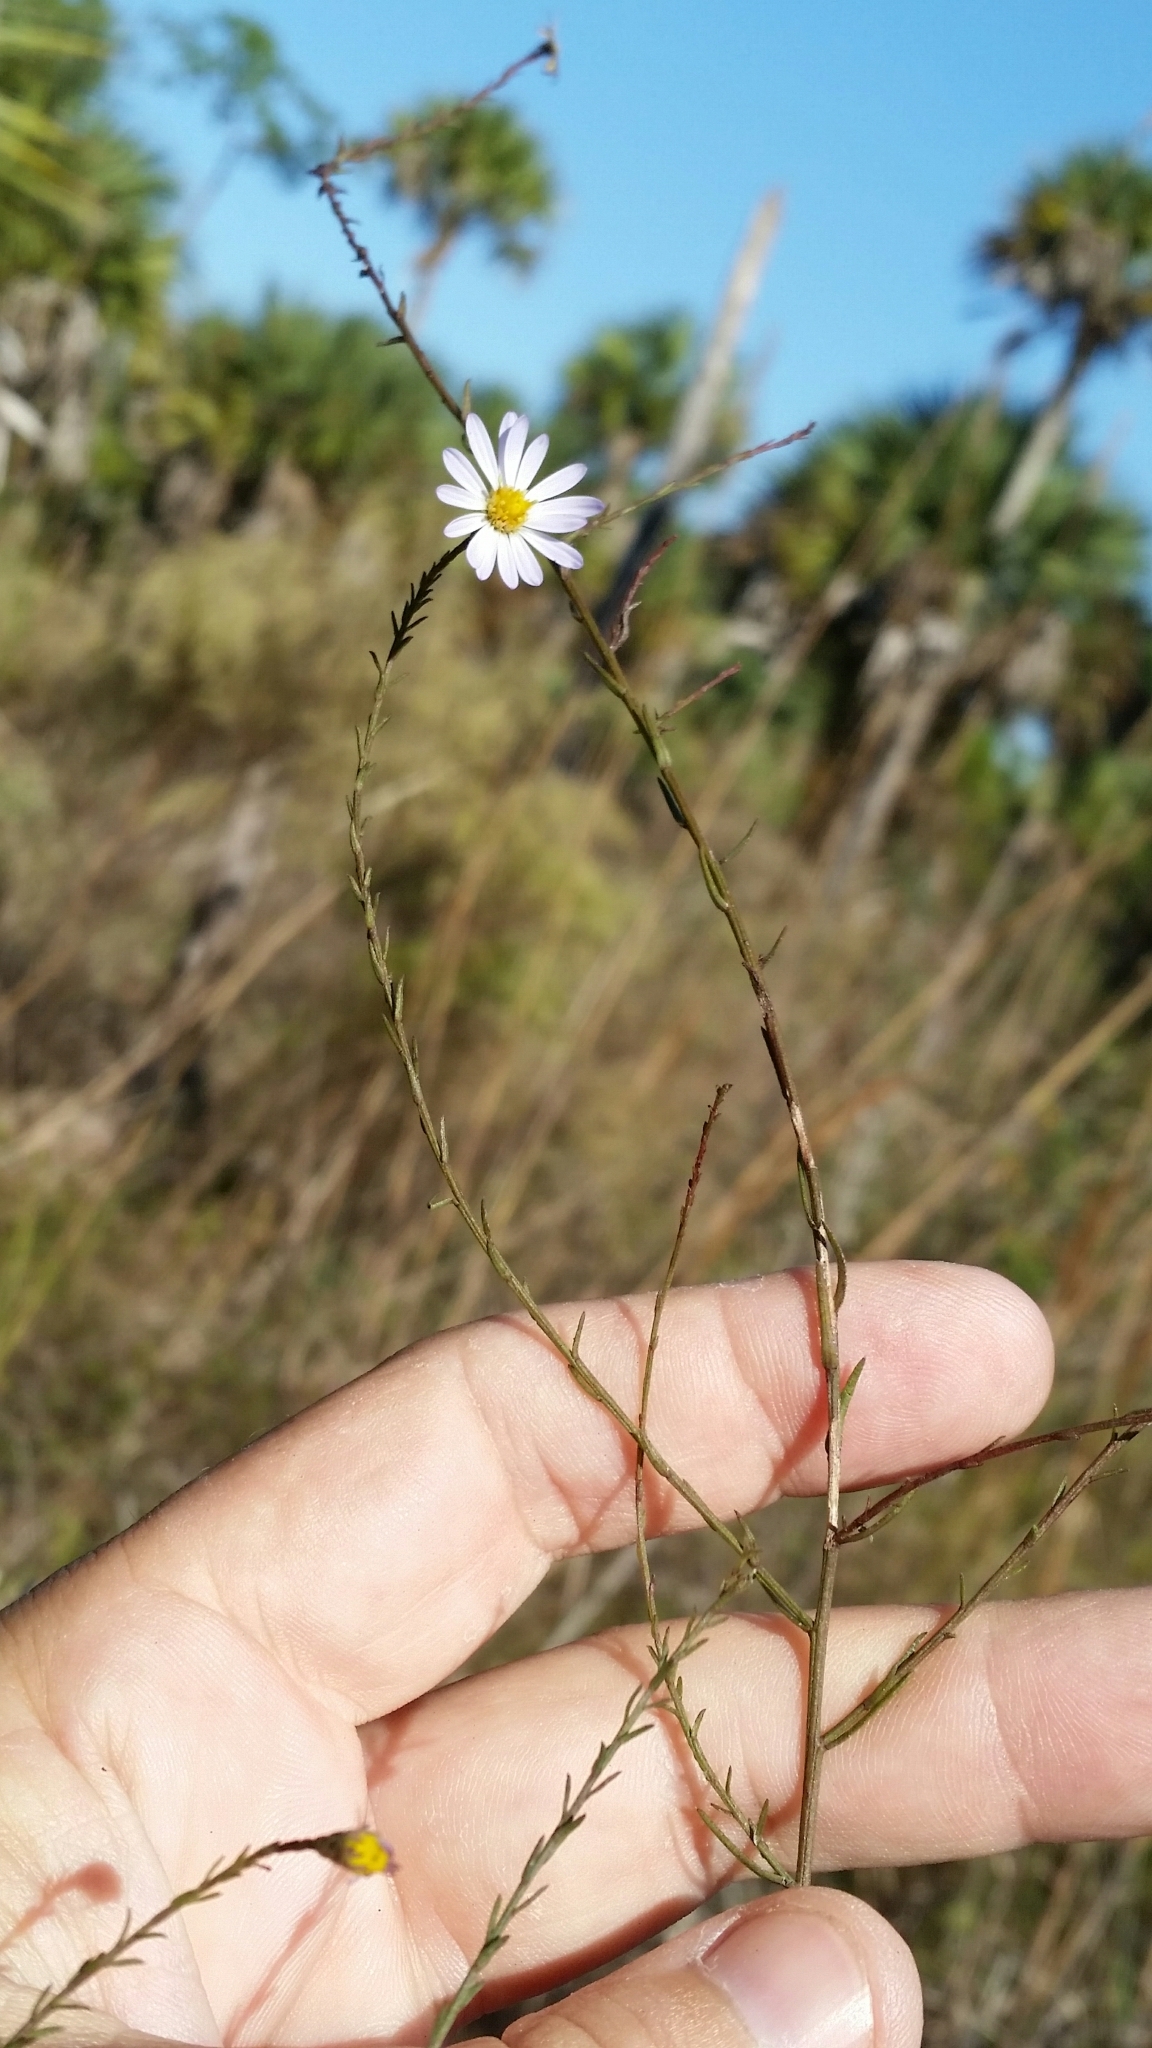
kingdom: Plantae
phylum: Tracheophyta
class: Magnoliopsida
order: Asterales
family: Asteraceae
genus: Symphyotrichum
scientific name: Symphyotrichum dumosum
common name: Bushy aster
